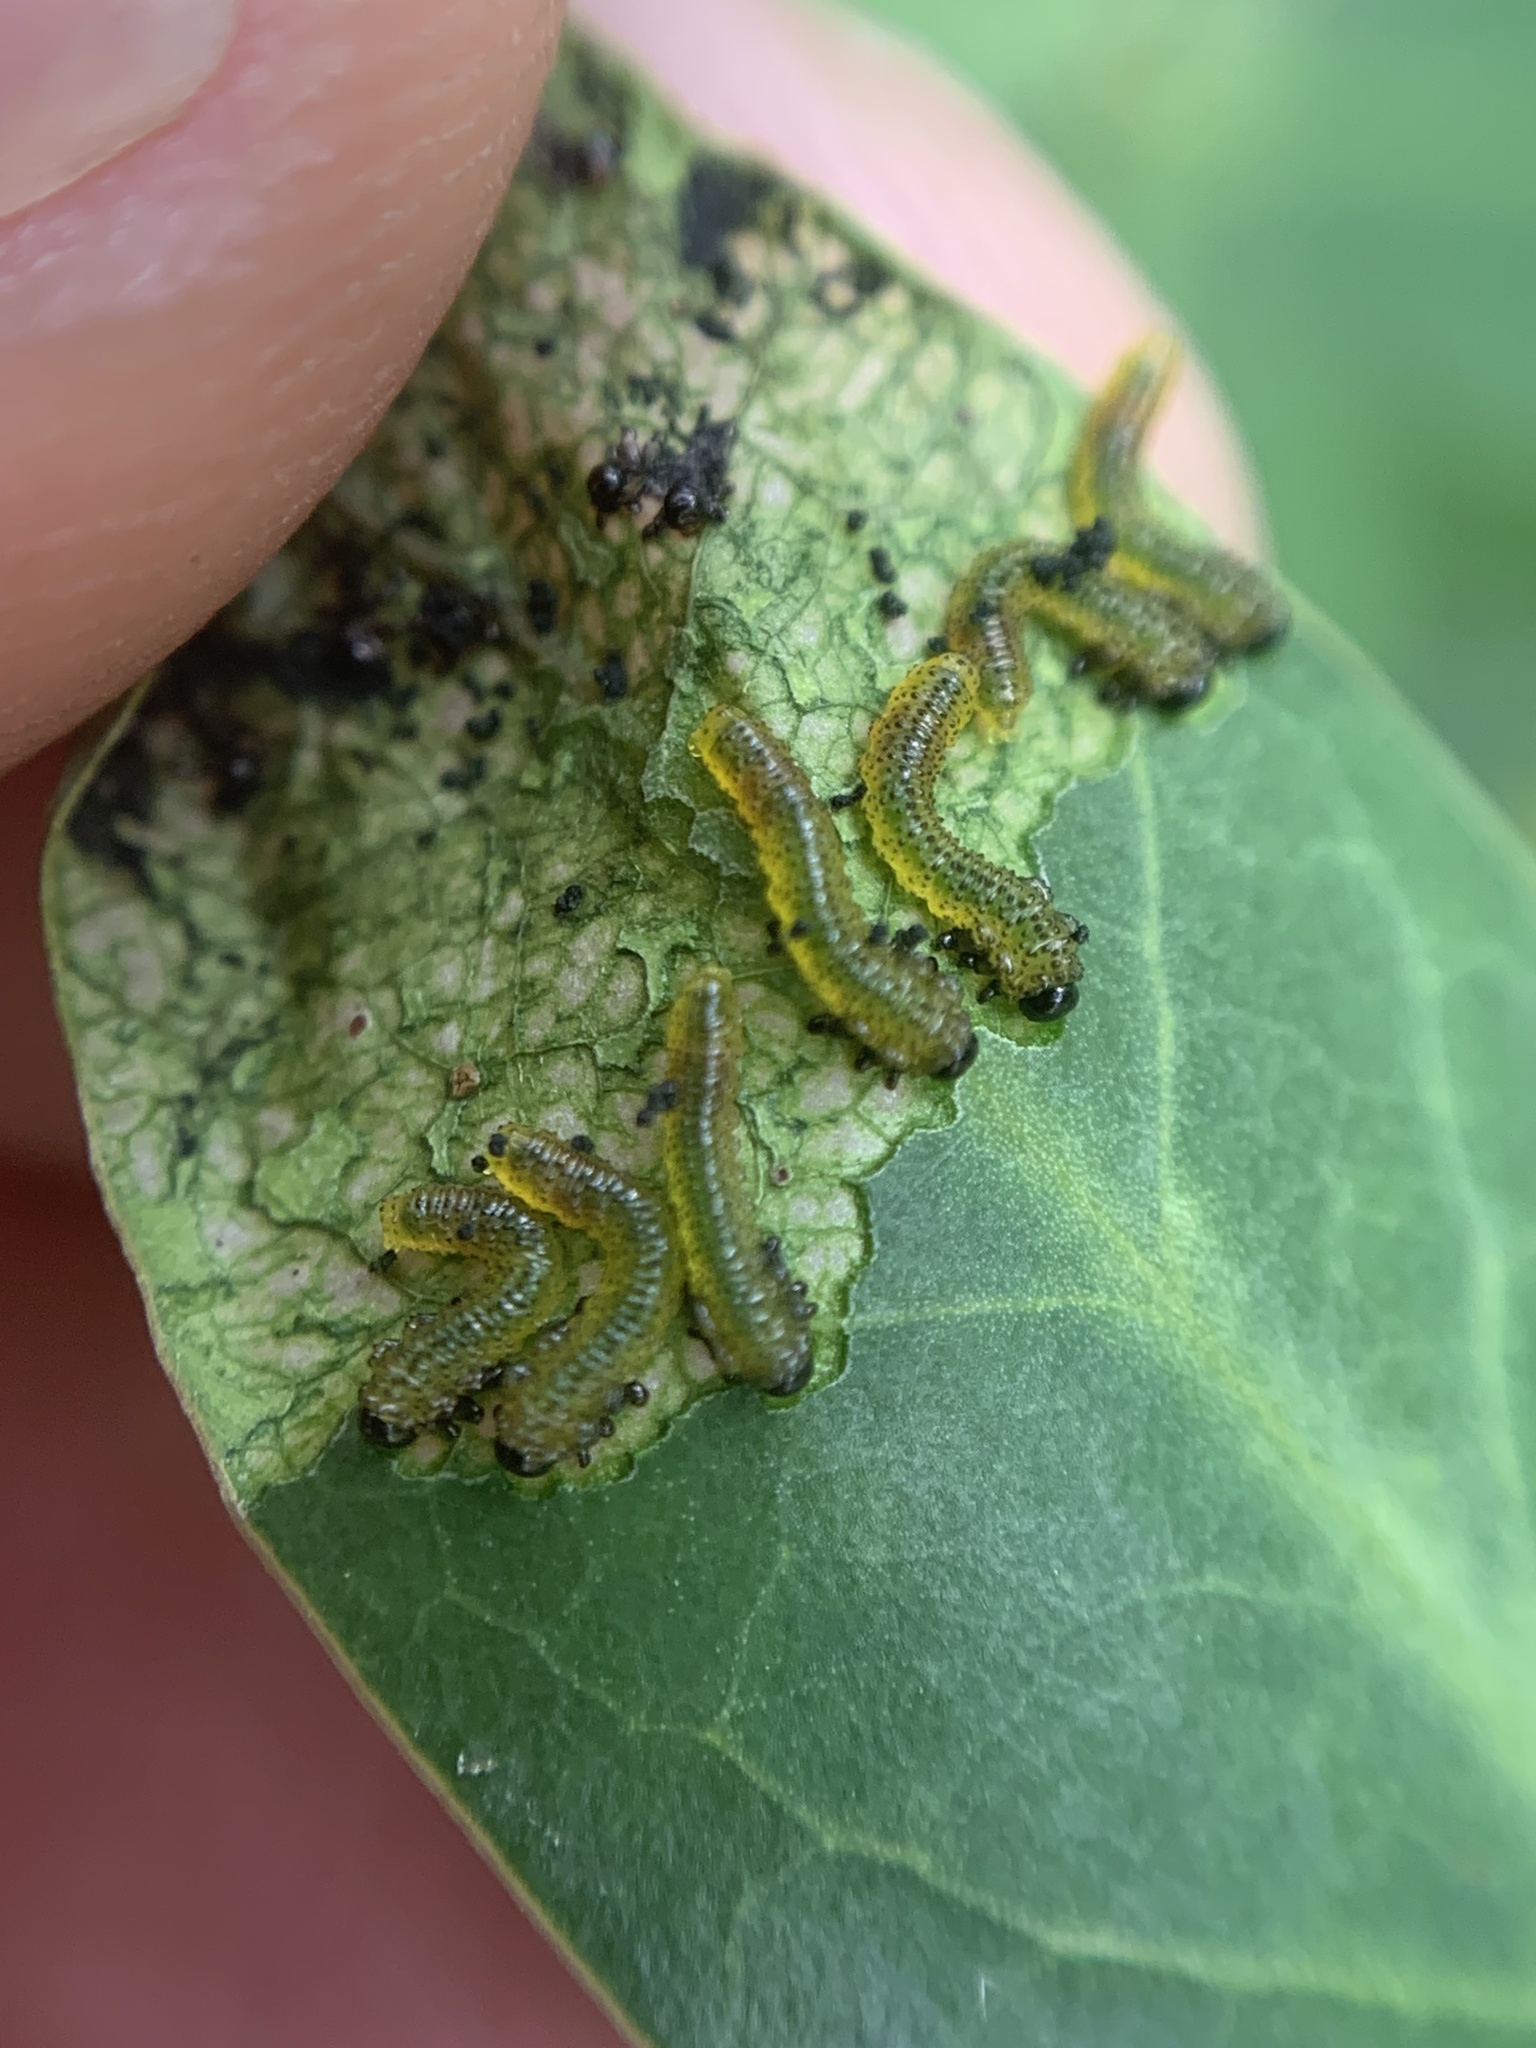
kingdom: Animalia
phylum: Arthropoda
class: Insecta
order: Hymenoptera
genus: Adurgoa
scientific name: Adurgoa
